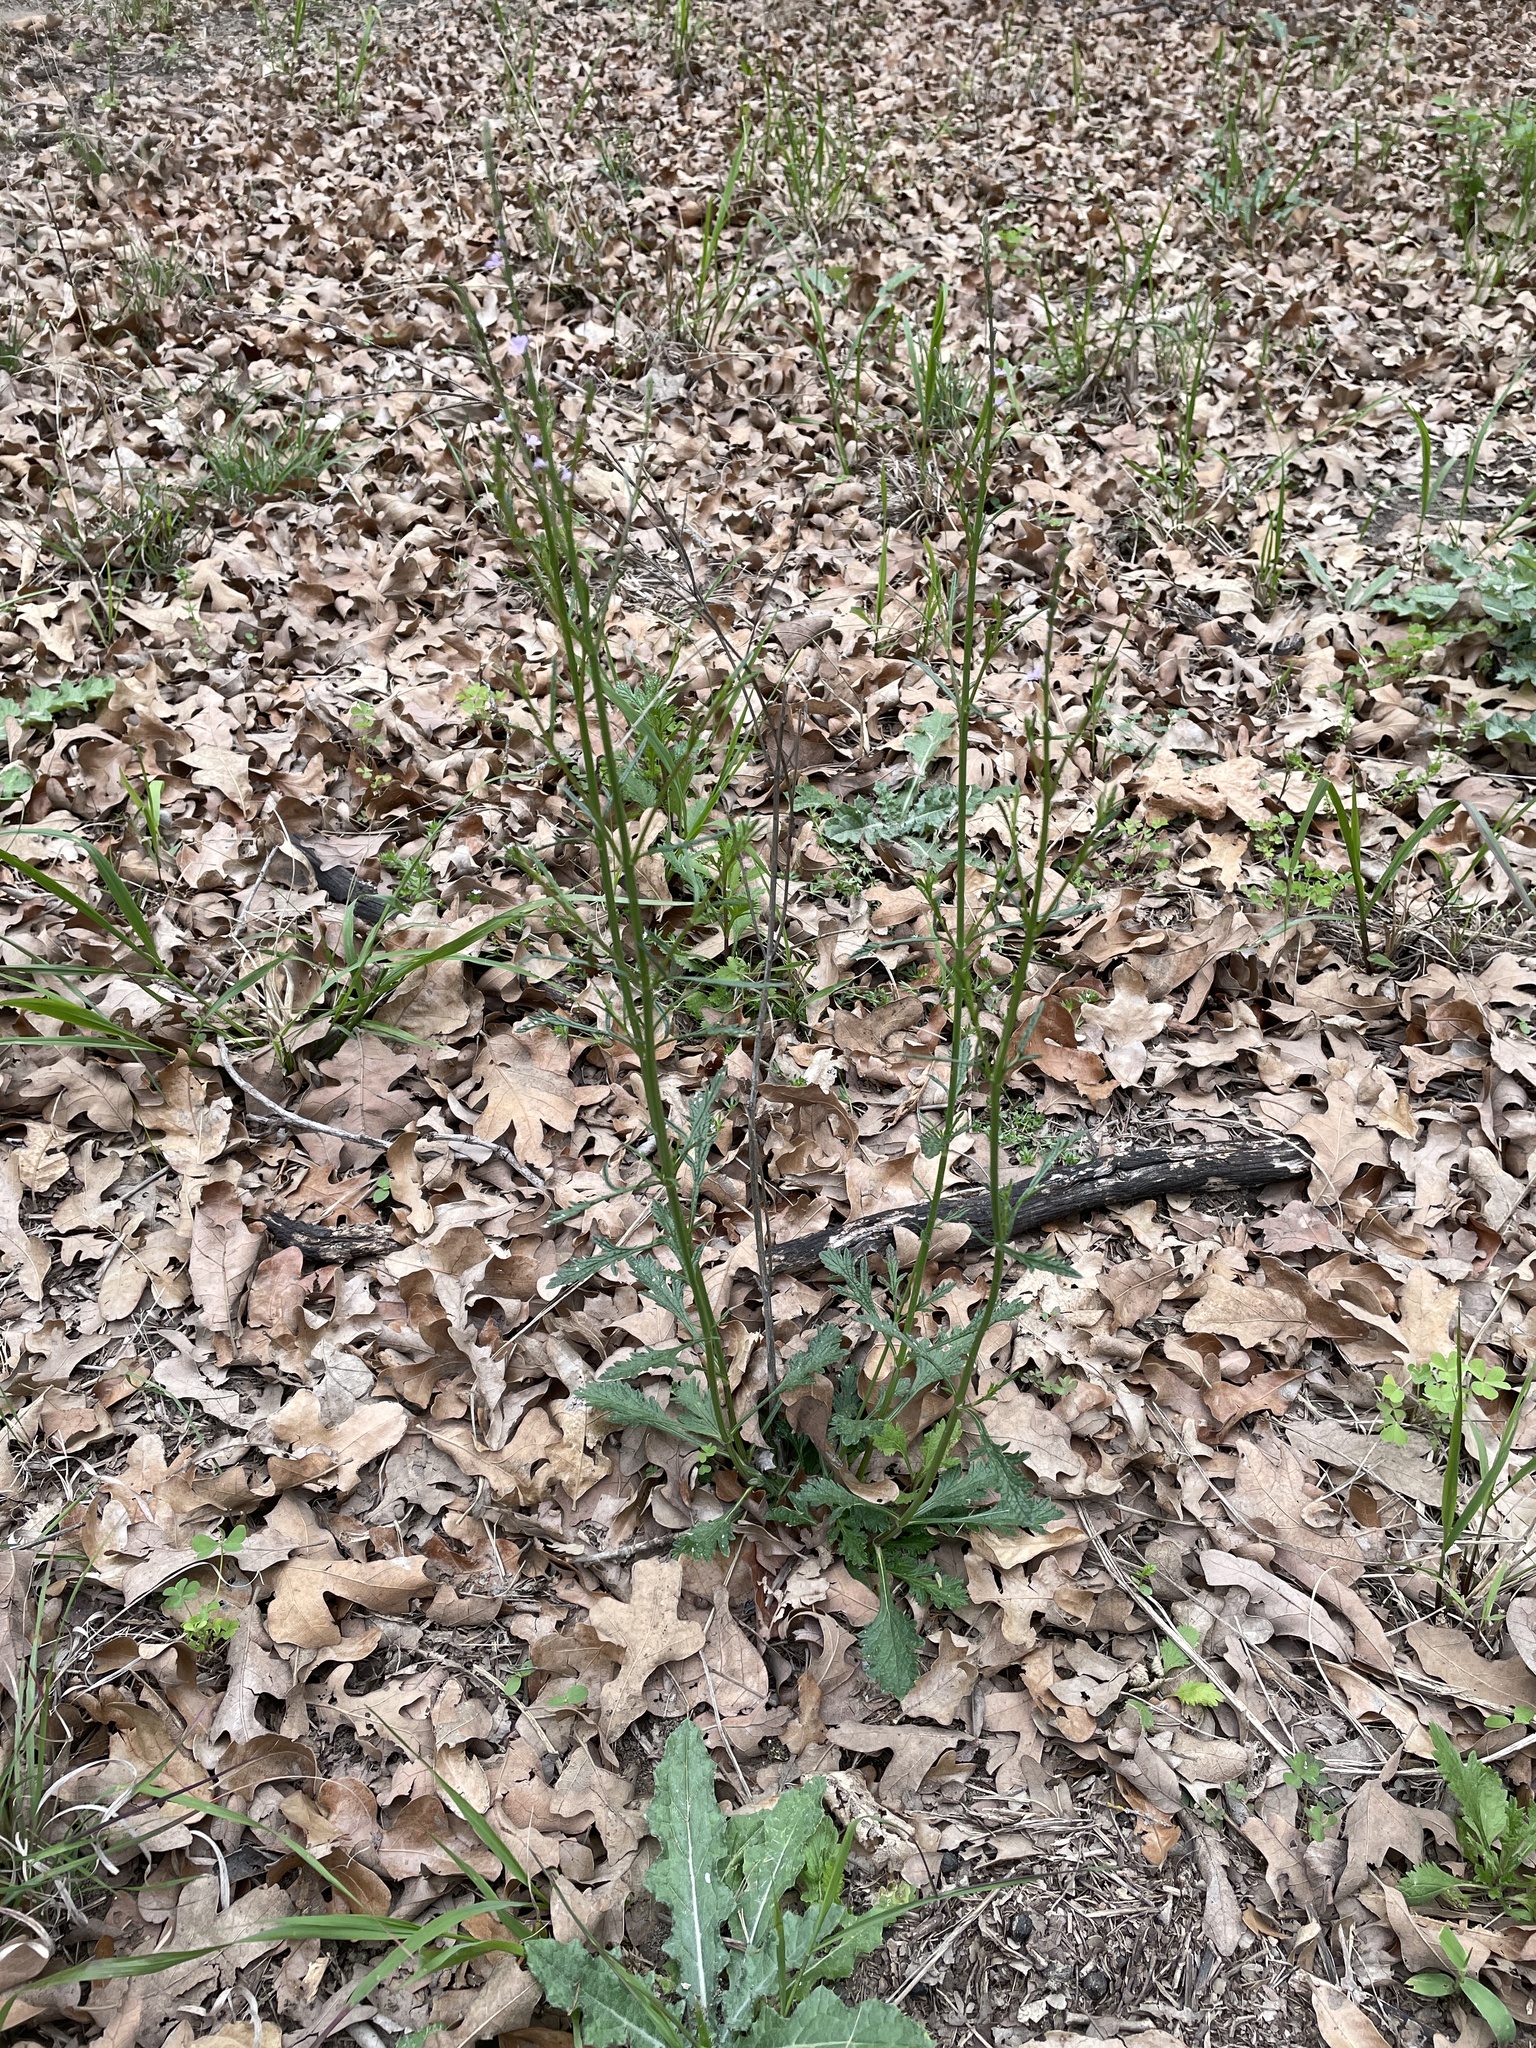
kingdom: Plantae
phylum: Tracheophyta
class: Magnoliopsida
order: Lamiales
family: Verbenaceae
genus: Verbena
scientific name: Verbena halei
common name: Texas vervain
